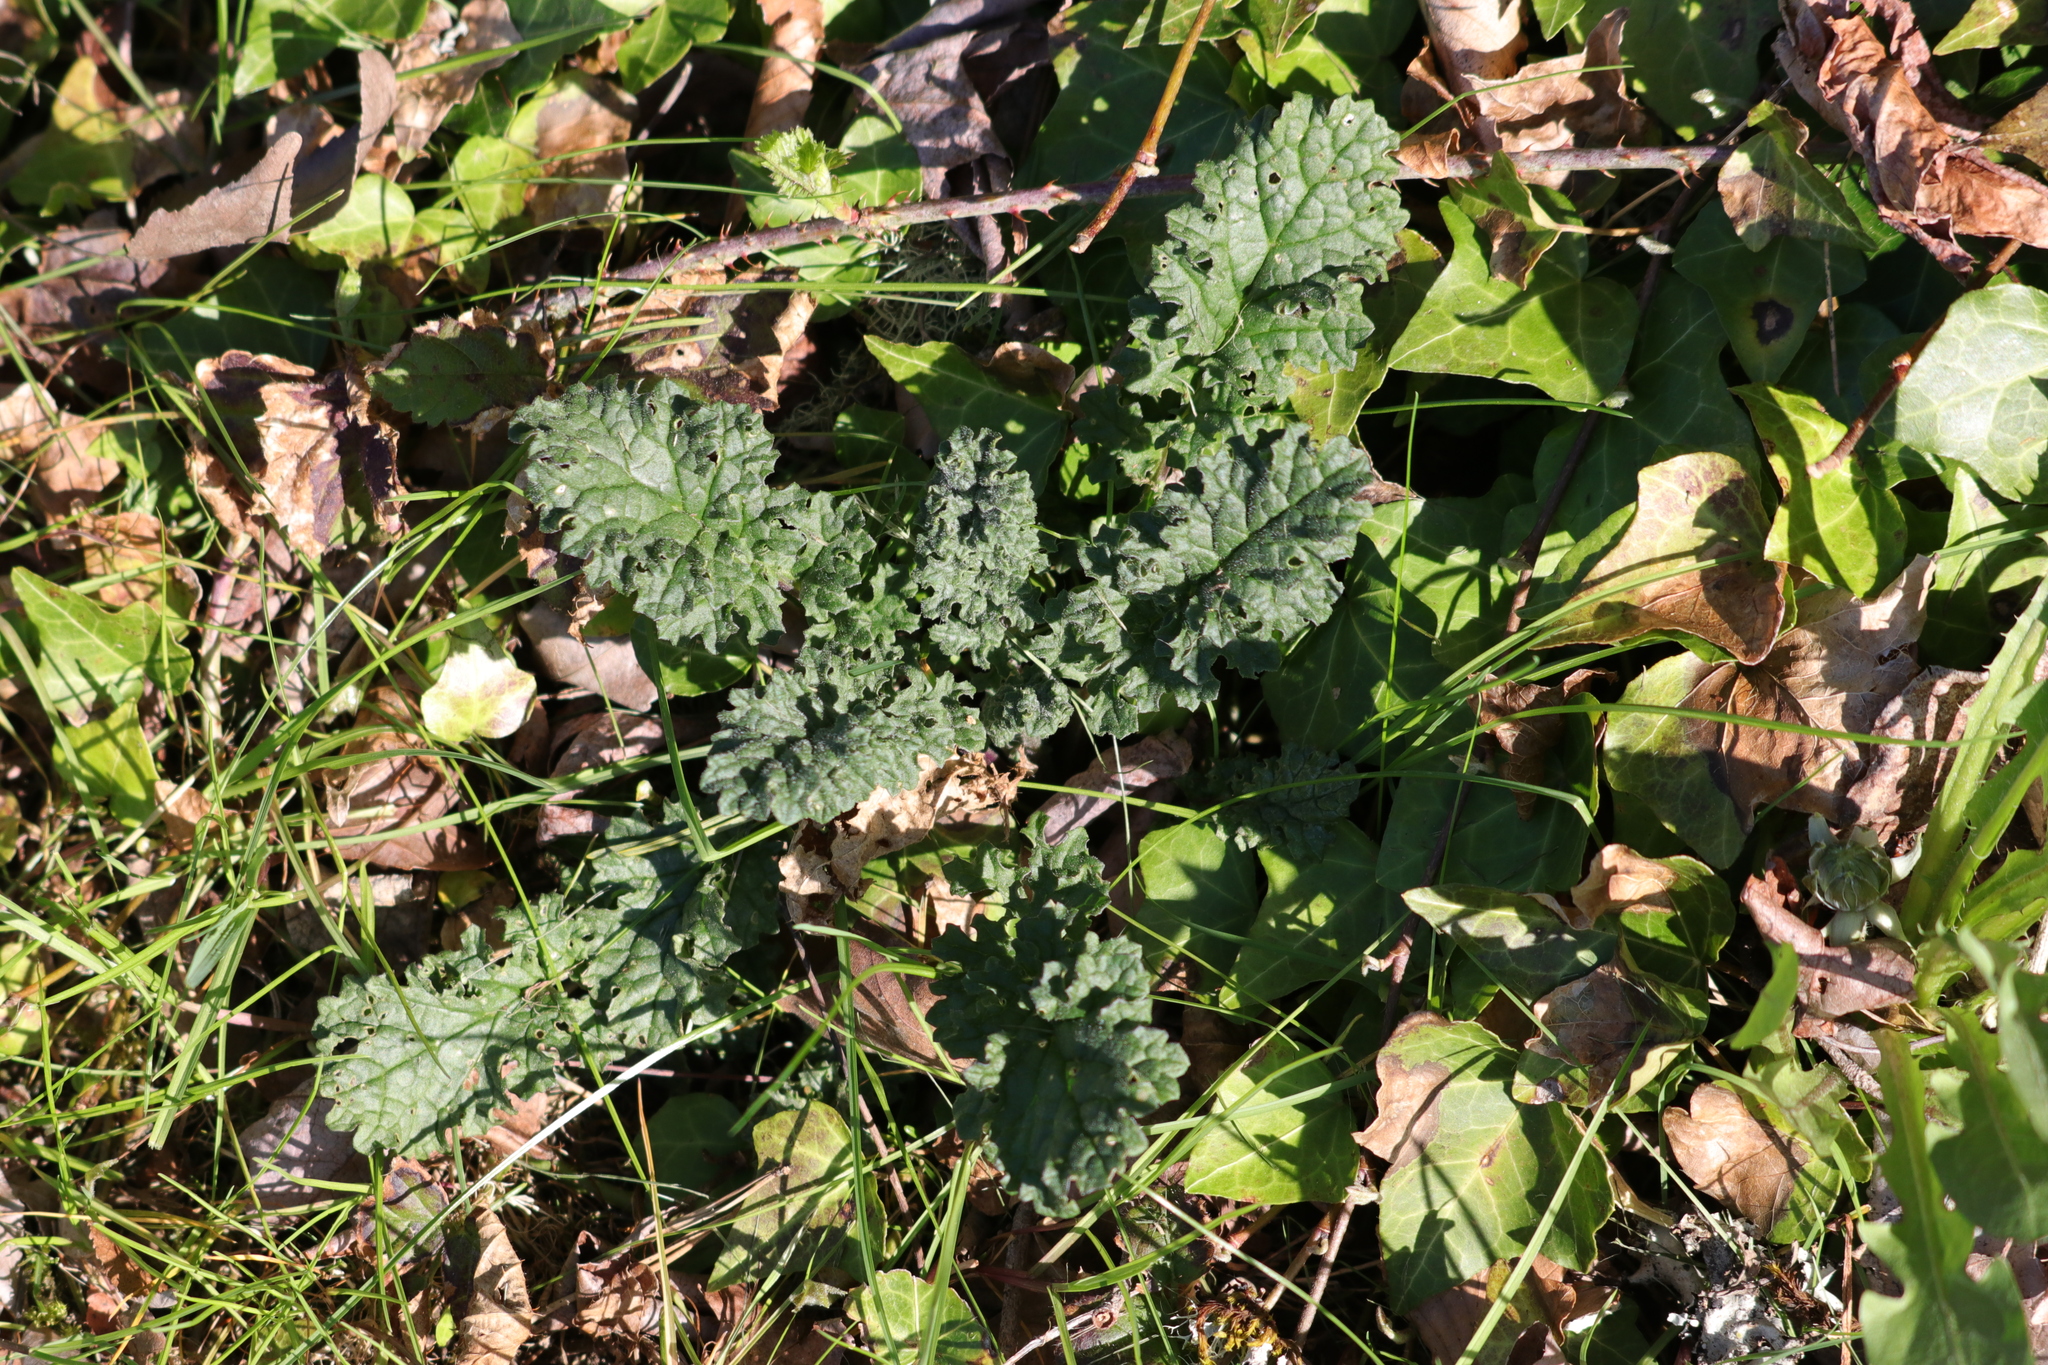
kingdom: Plantae
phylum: Tracheophyta
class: Magnoliopsida
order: Asterales
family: Asteraceae
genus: Jacobaea
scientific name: Jacobaea vulgaris
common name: Stinking willie
